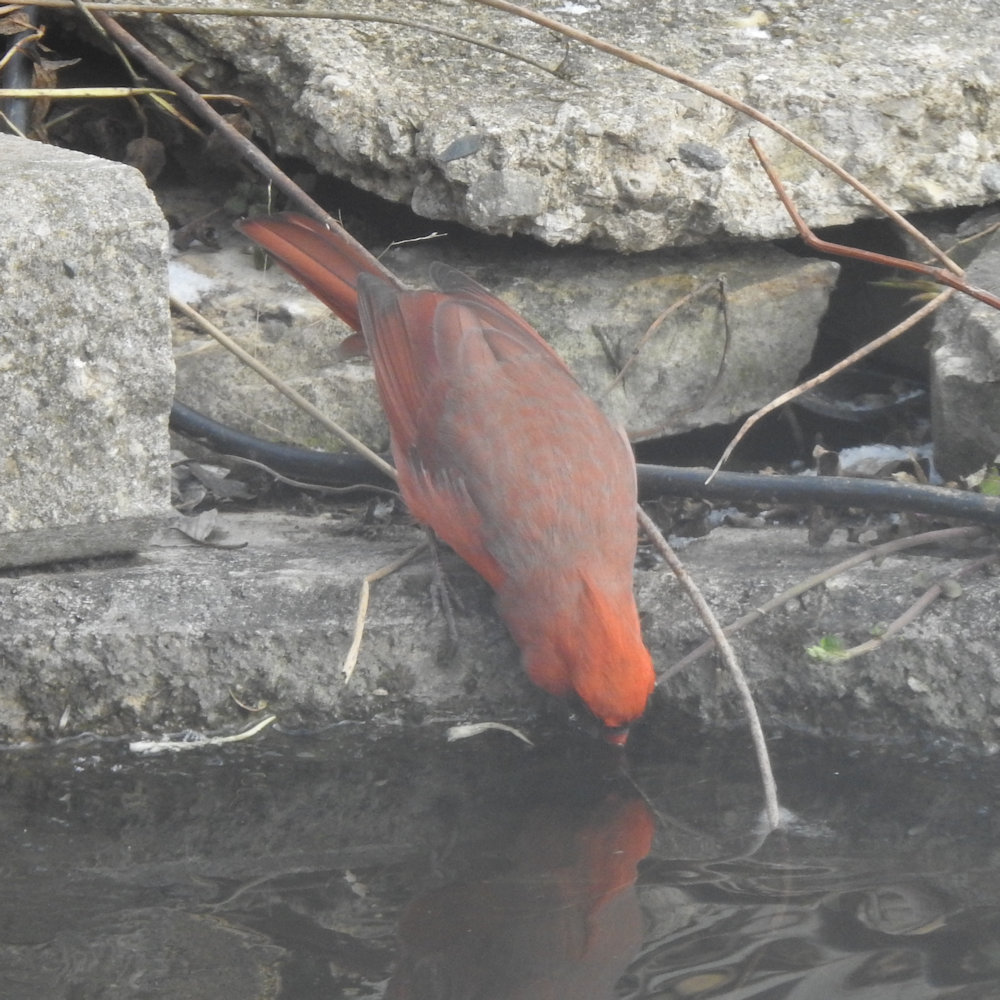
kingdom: Animalia
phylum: Chordata
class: Aves
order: Passeriformes
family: Cardinalidae
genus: Cardinalis
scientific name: Cardinalis cardinalis
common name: Northern cardinal
